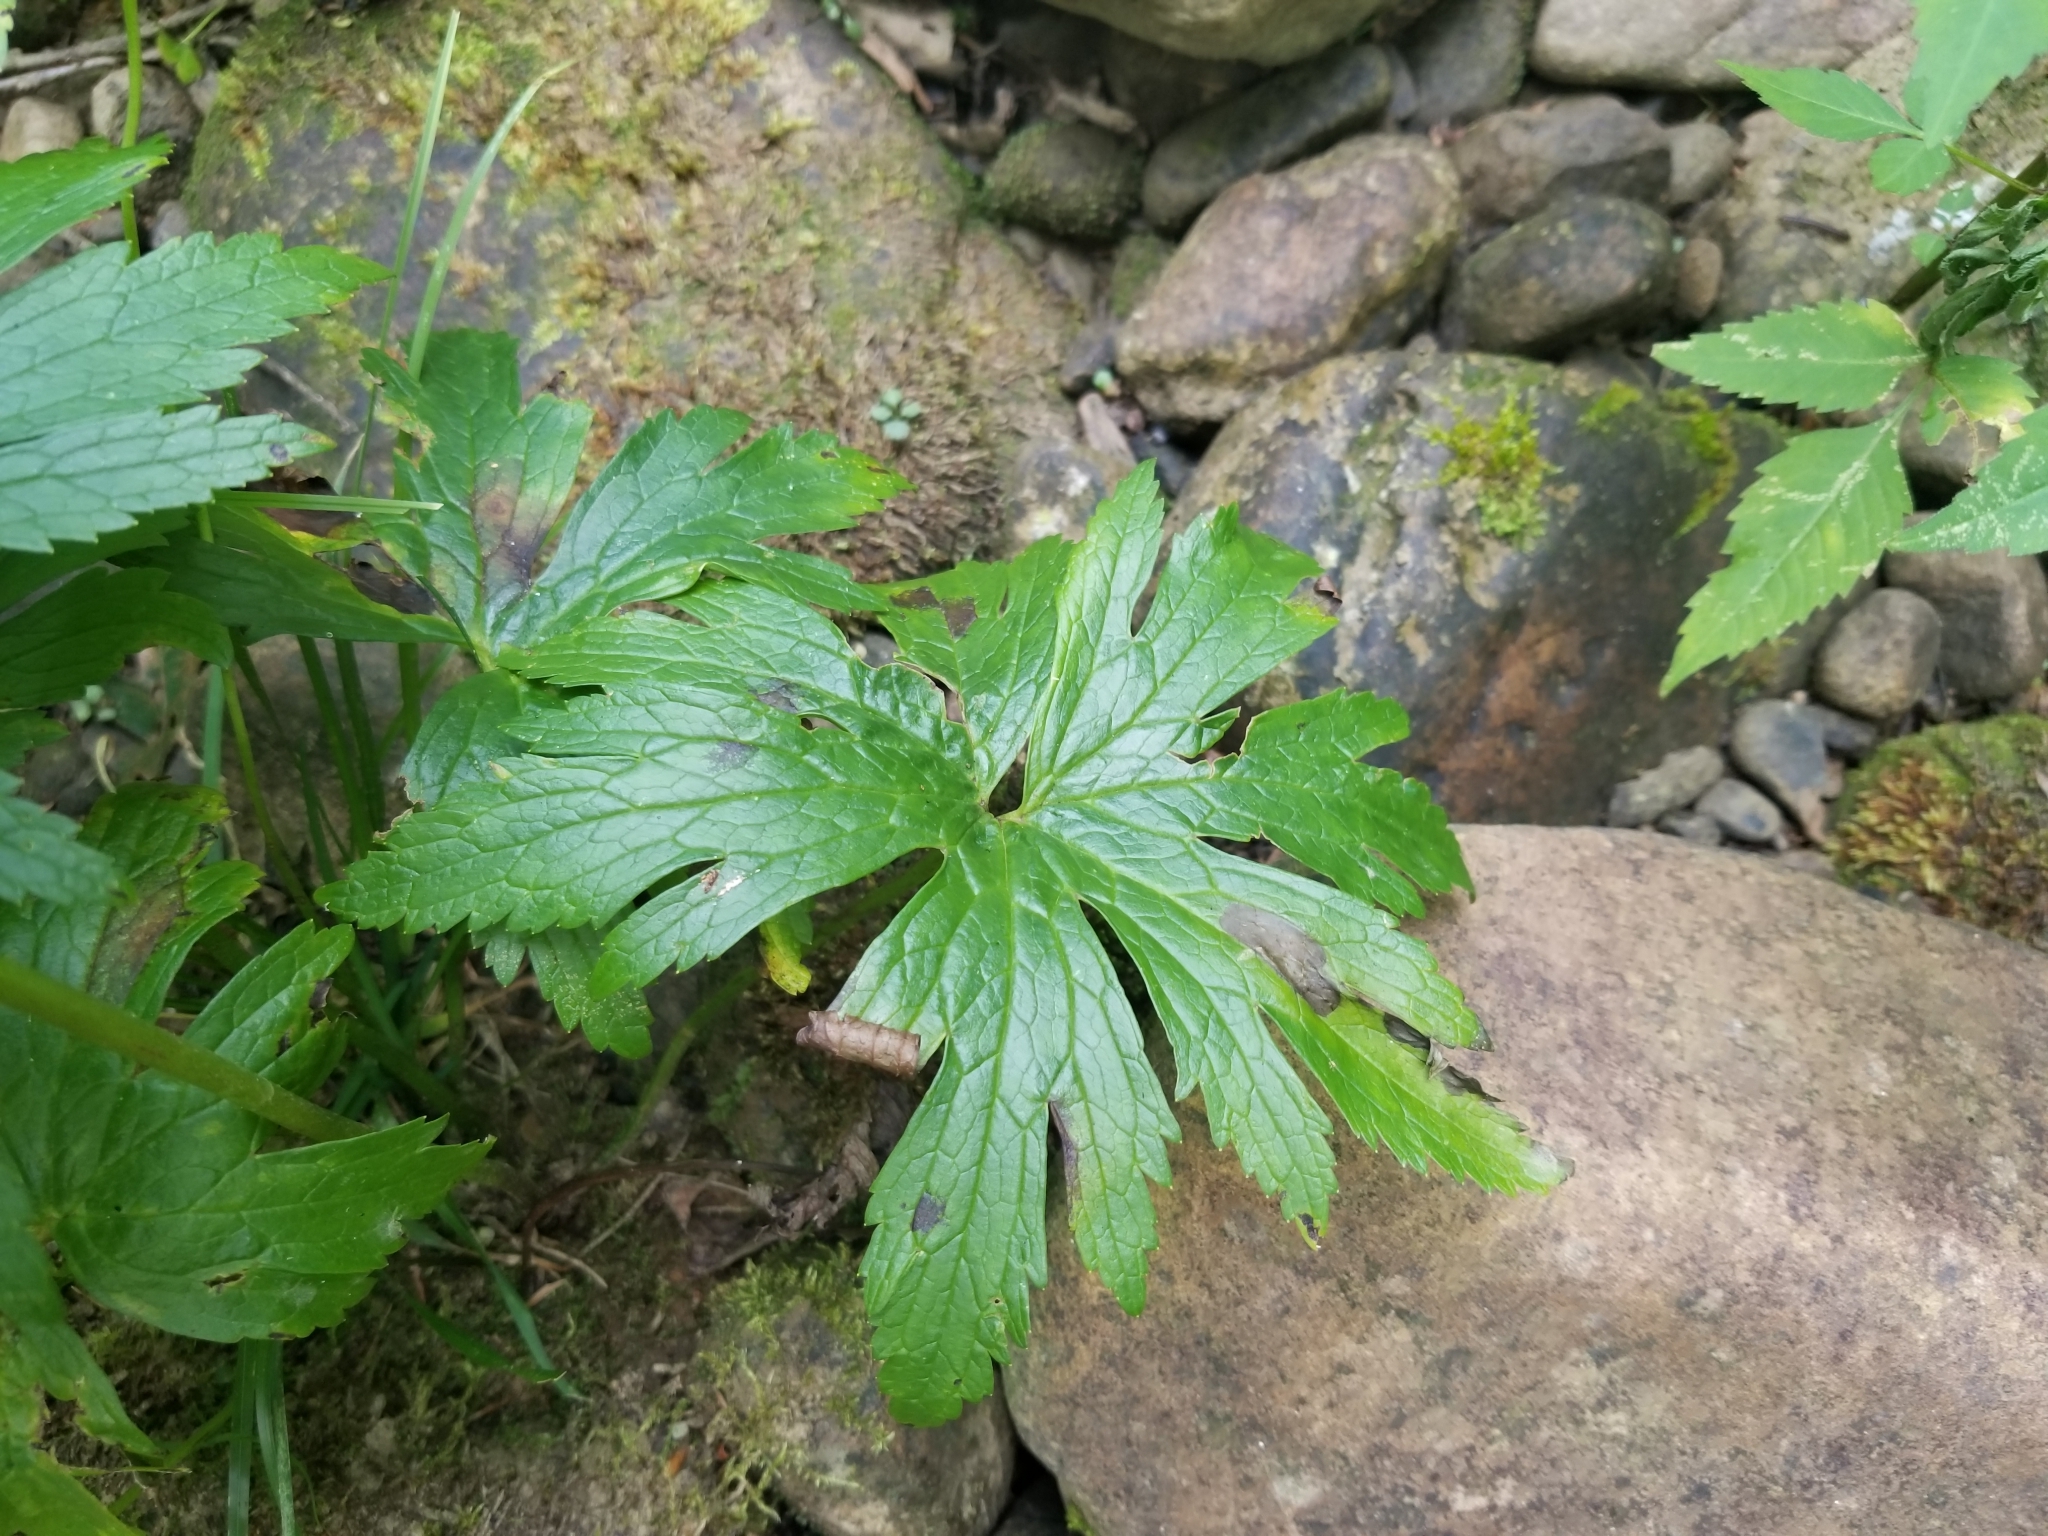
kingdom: Plantae
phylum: Tracheophyta
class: Magnoliopsida
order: Ranunculales
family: Ranunculaceae
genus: Trautvetteria
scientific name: Trautvetteria carolinensis
